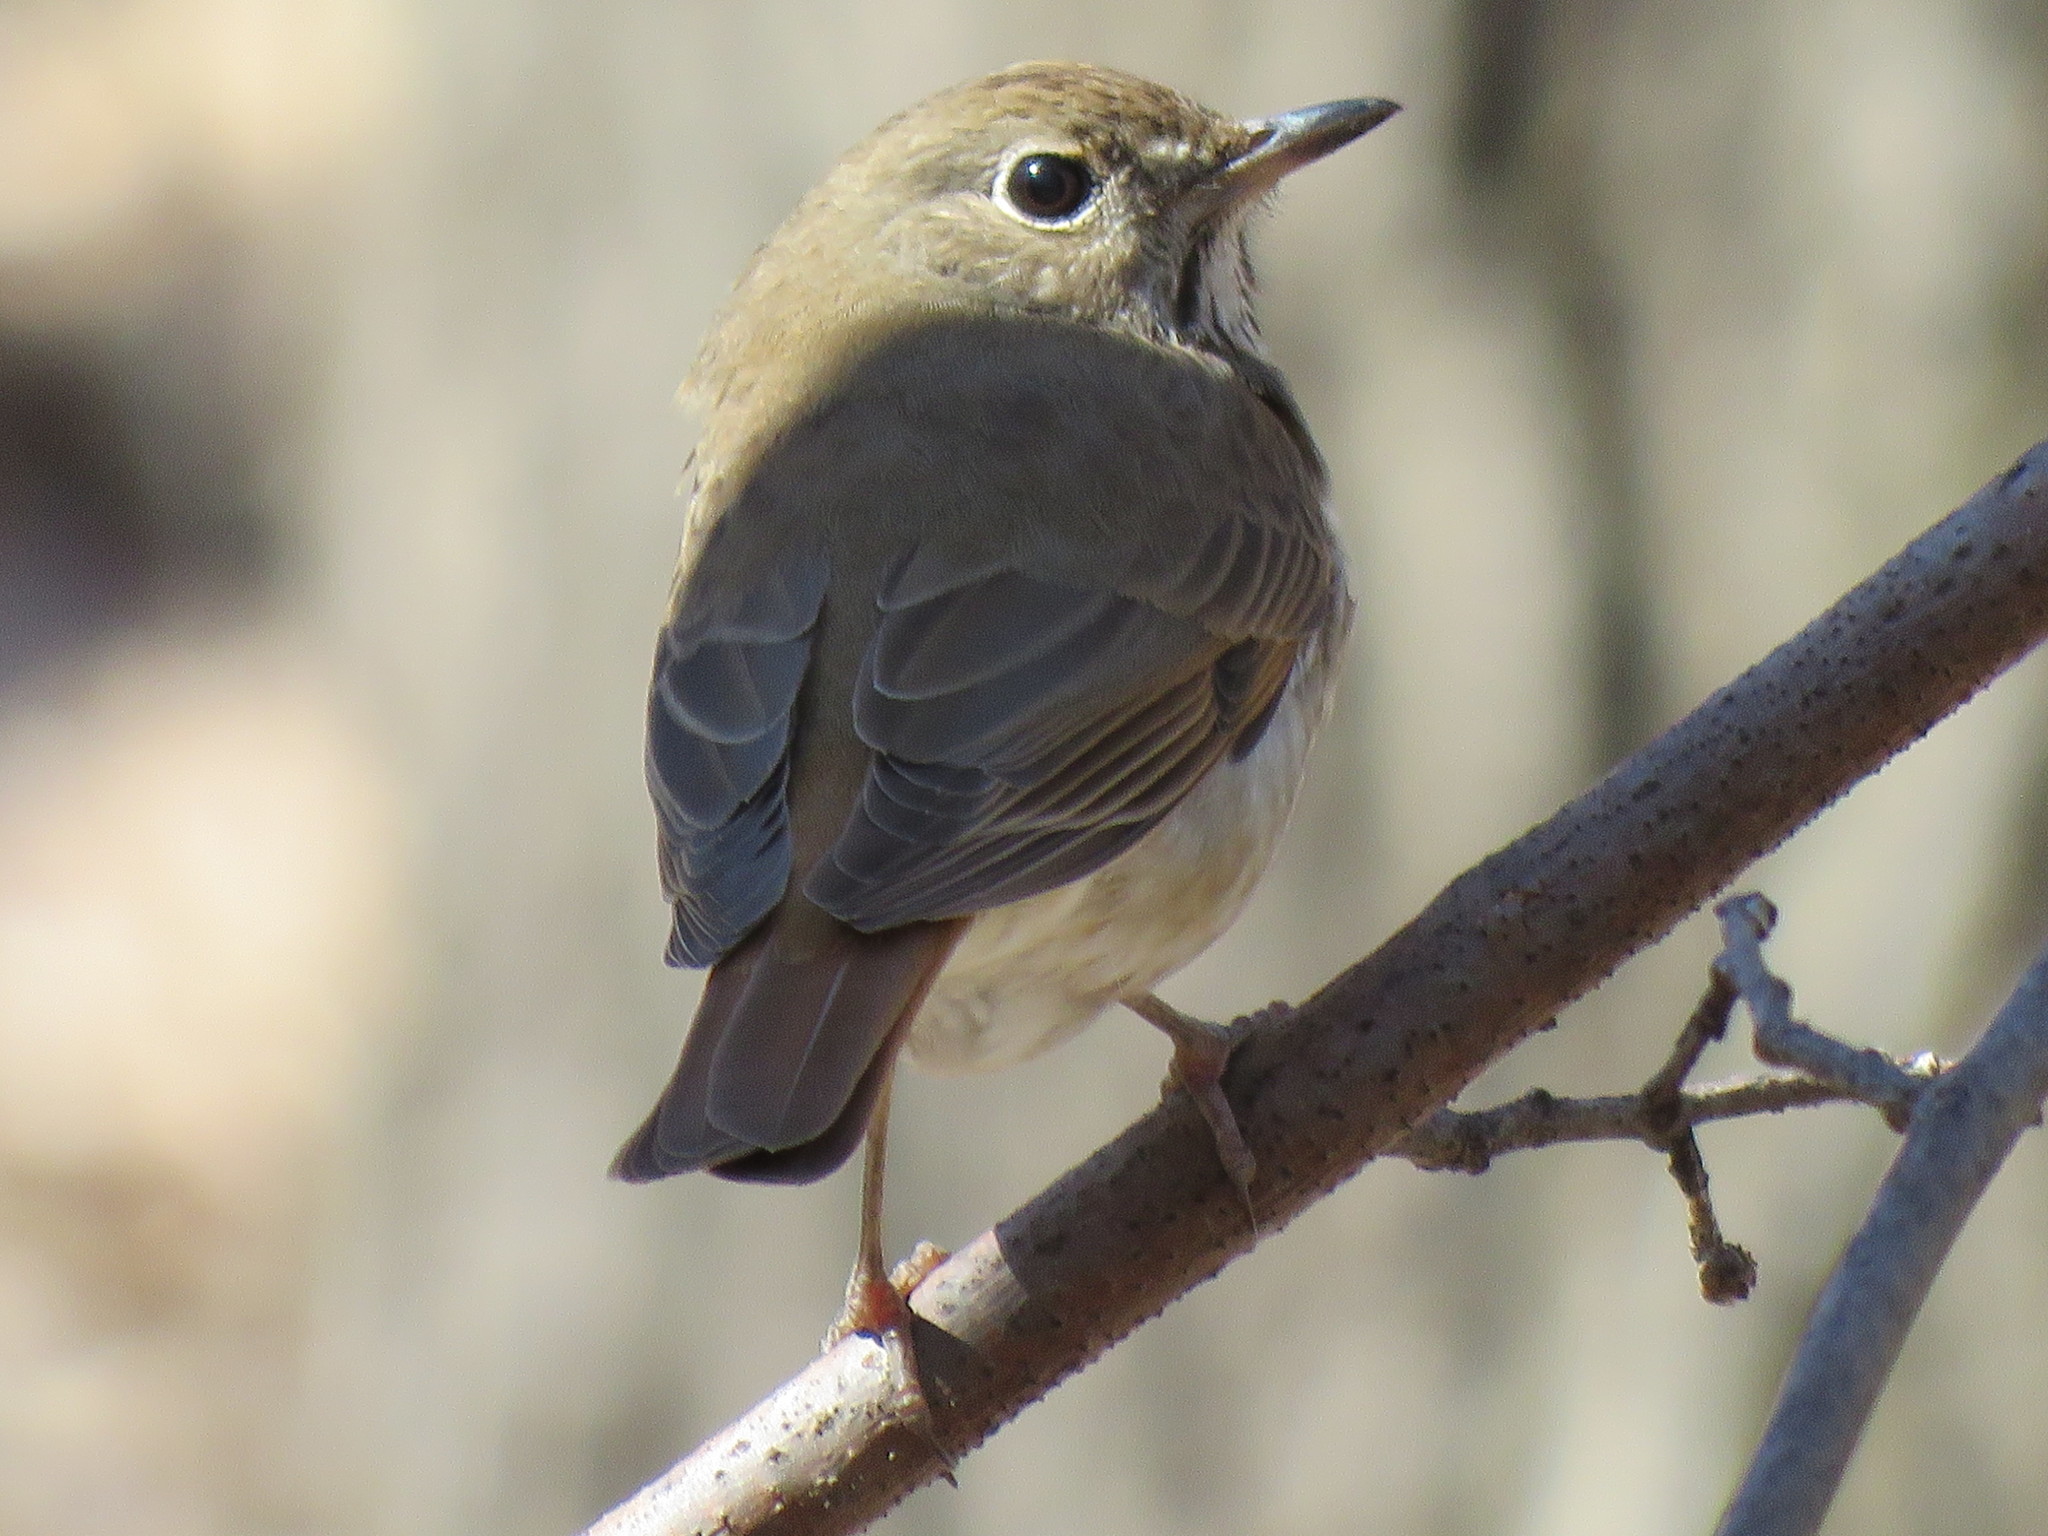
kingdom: Animalia
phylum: Chordata
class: Aves
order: Passeriformes
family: Turdidae
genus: Catharus
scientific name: Catharus guttatus
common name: Hermit thrush
